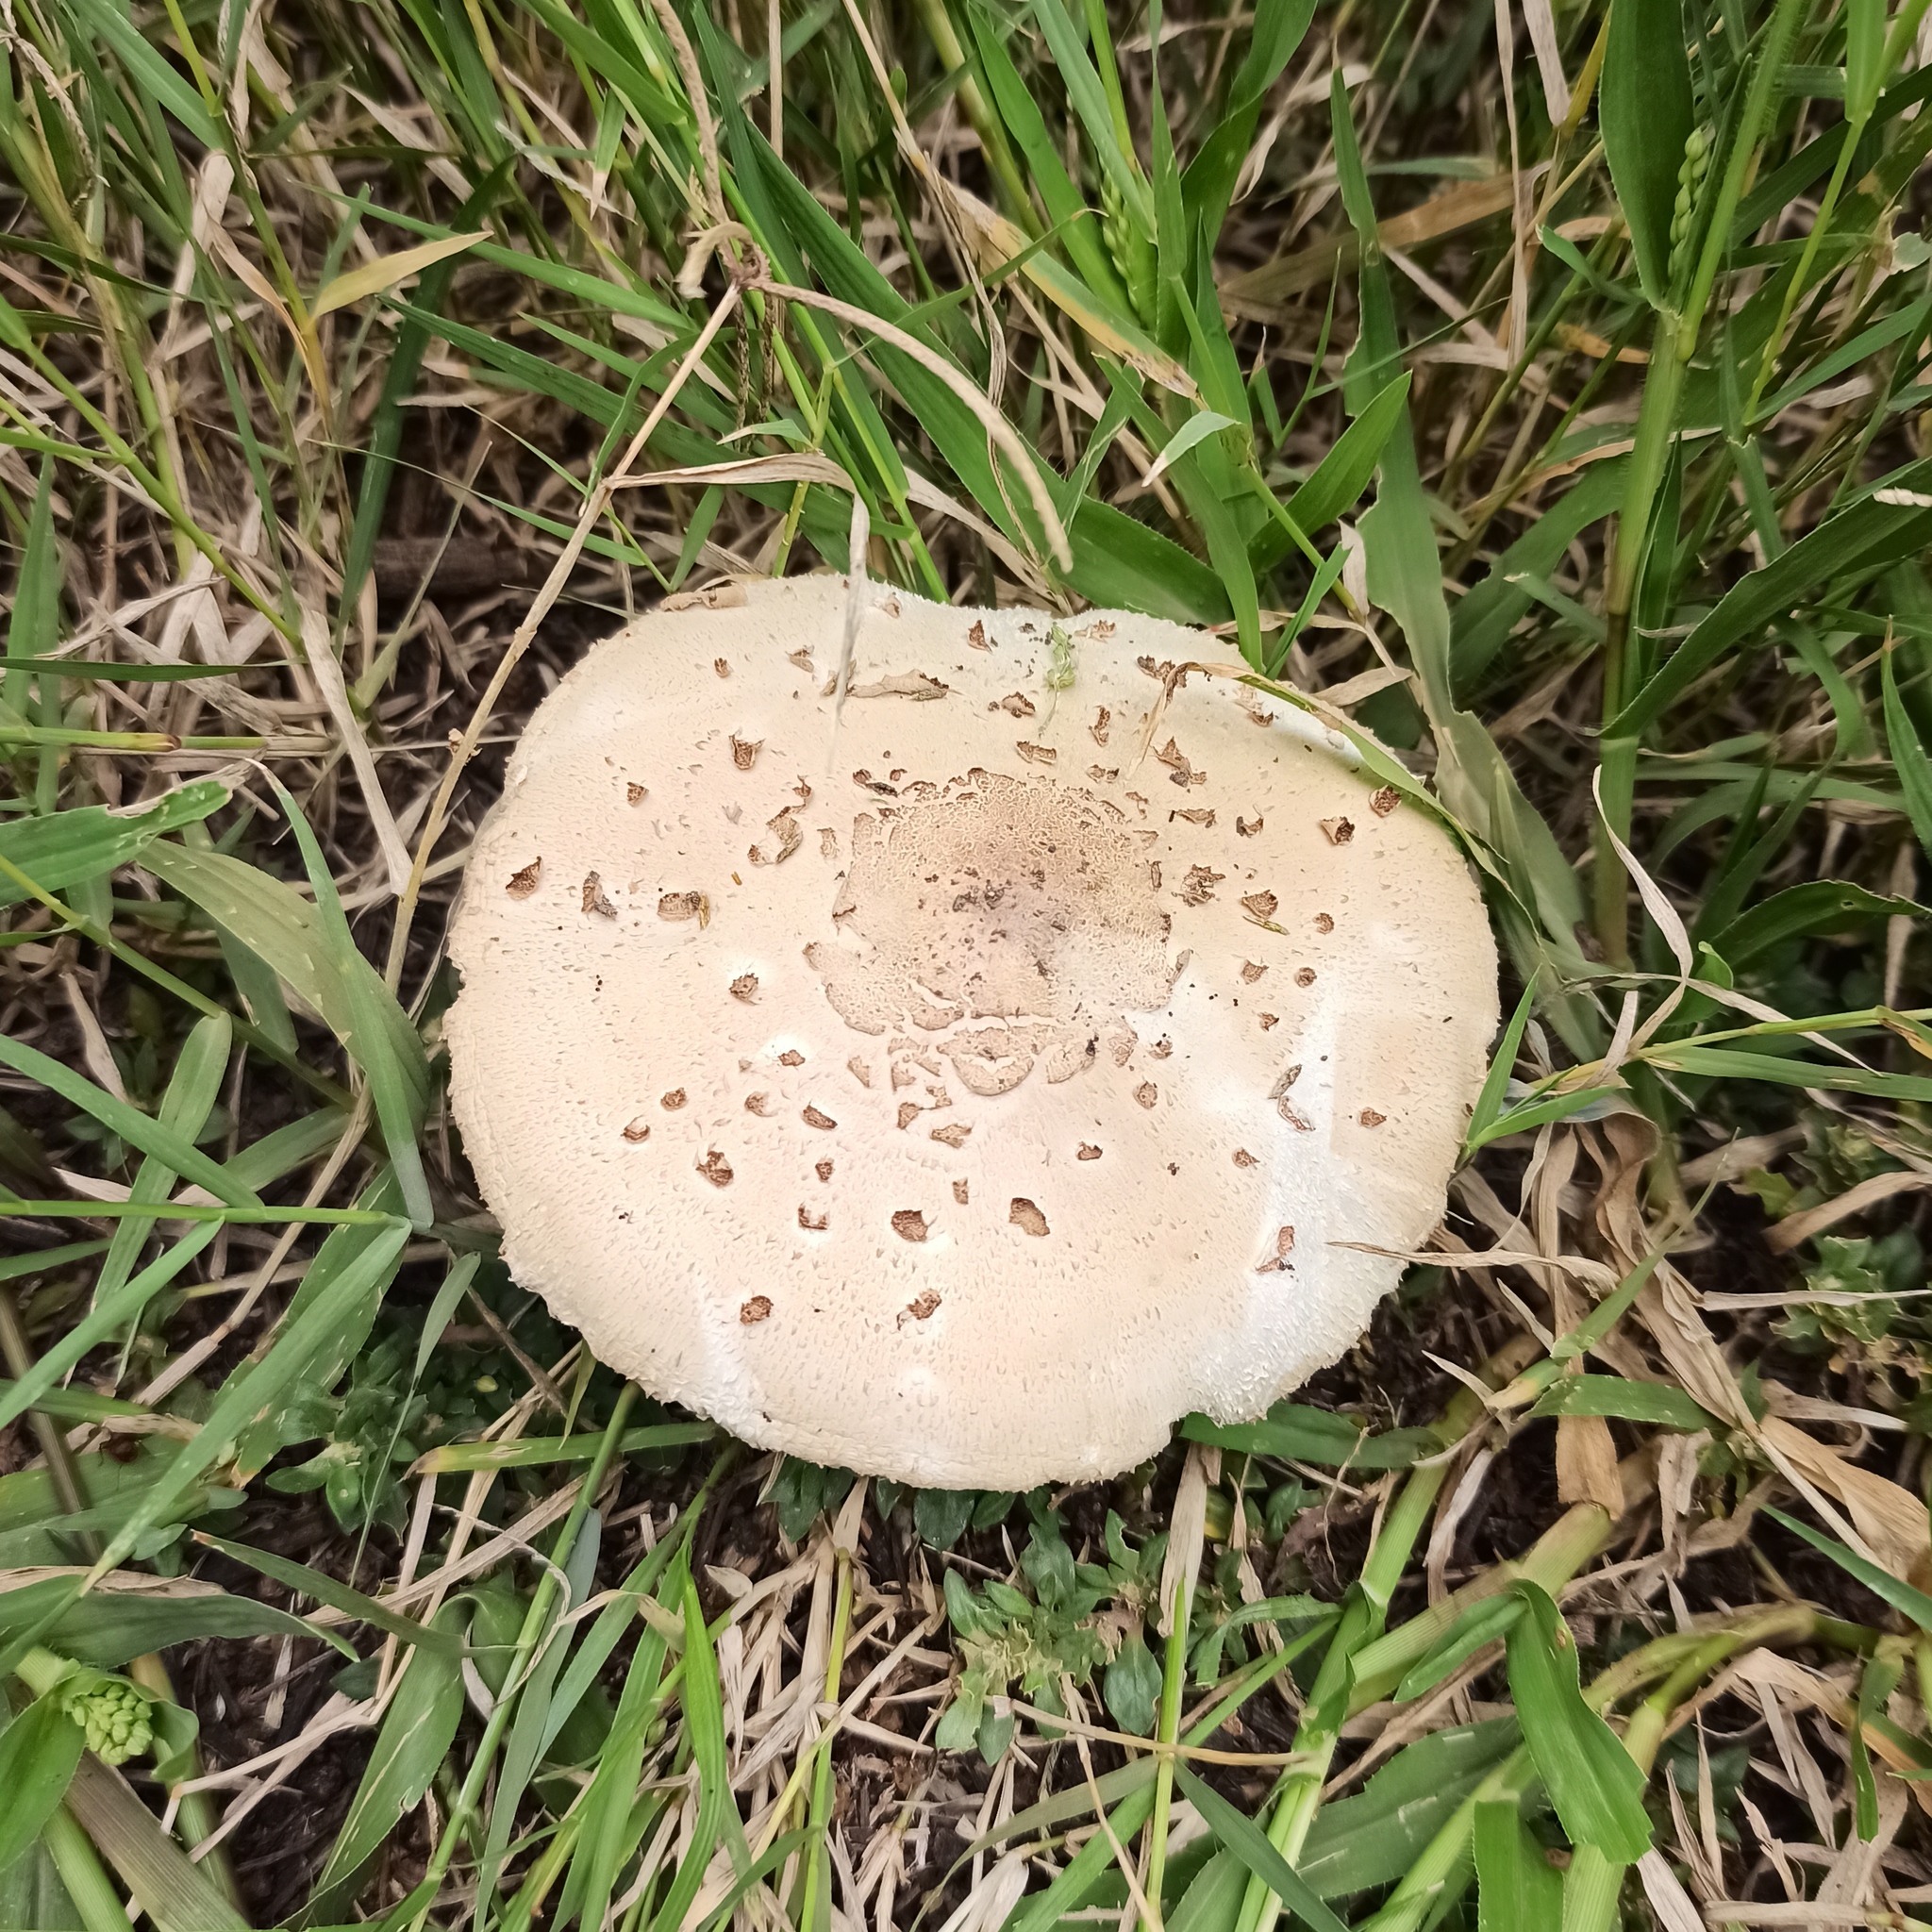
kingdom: Fungi
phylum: Basidiomycota
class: Agaricomycetes
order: Agaricales
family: Agaricaceae
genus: Chlorophyllum
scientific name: Chlorophyllum molybdites
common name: False parasol
